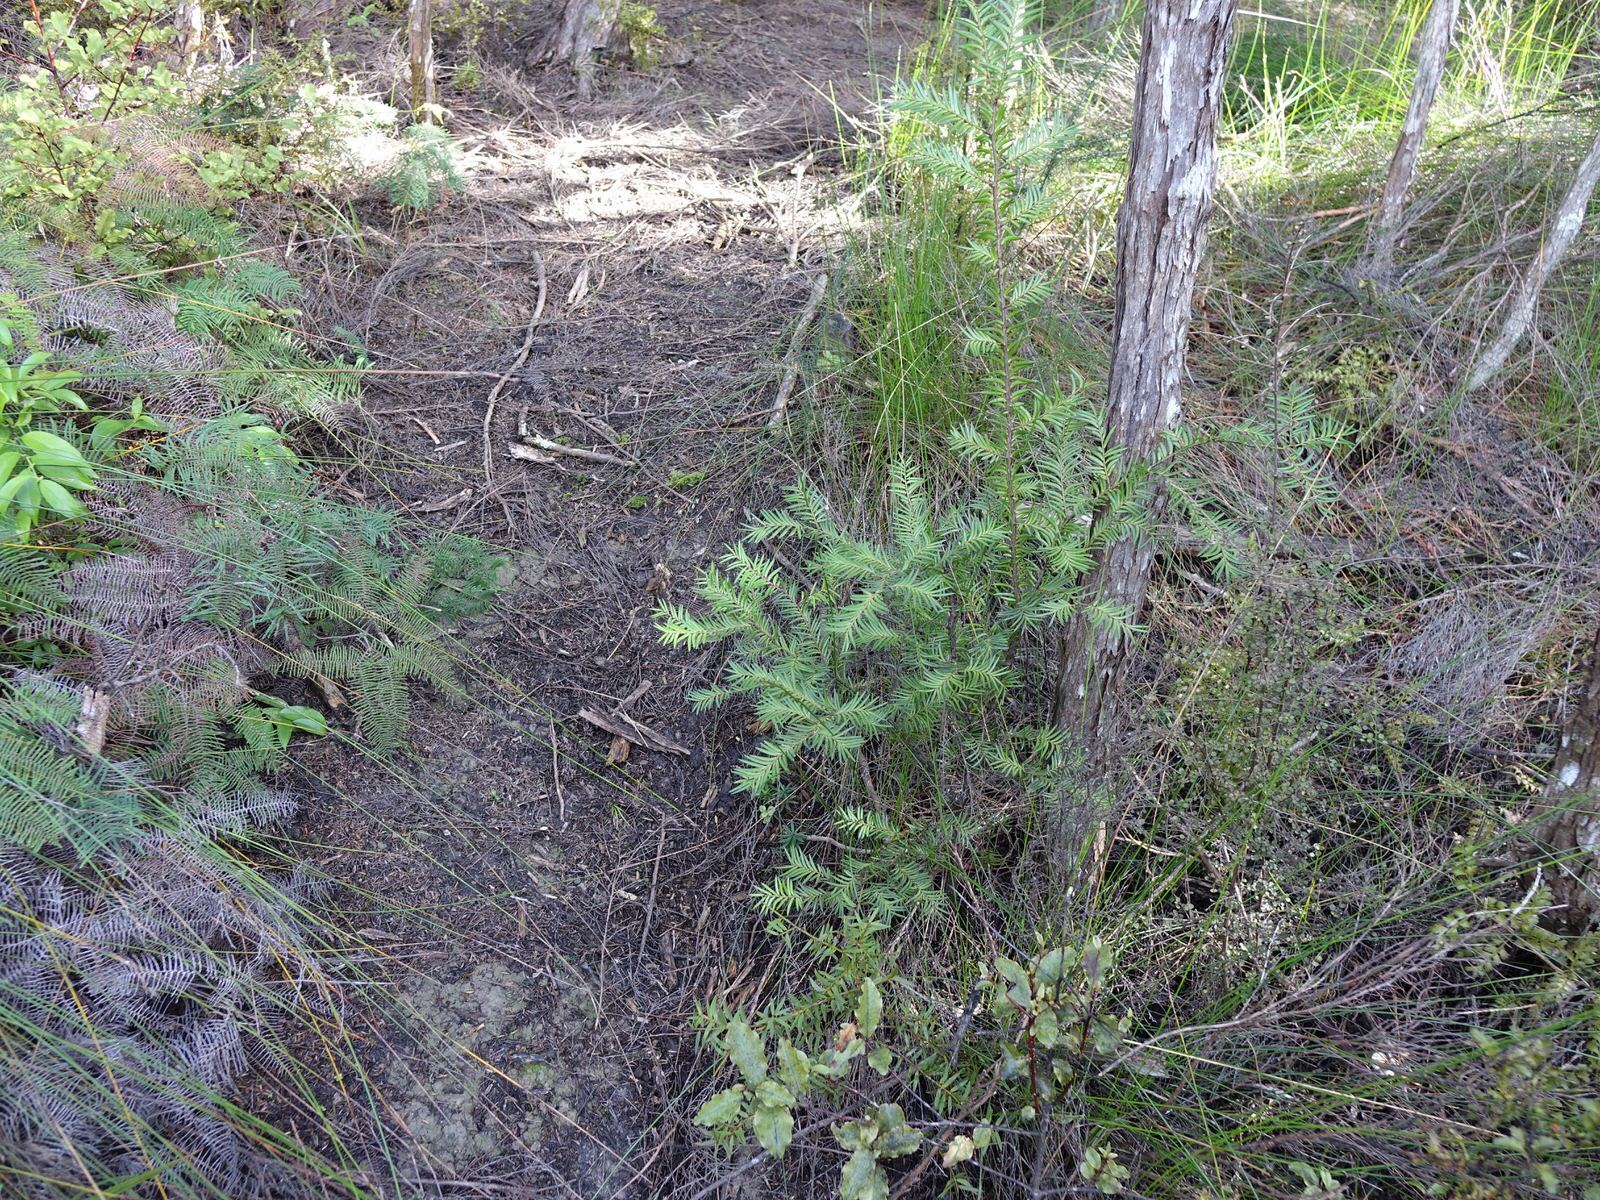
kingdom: Plantae
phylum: Tracheophyta
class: Pinopsida
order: Pinales
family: Podocarpaceae
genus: Prumnopitys
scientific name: Prumnopitys ferruginea
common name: Brown pine
